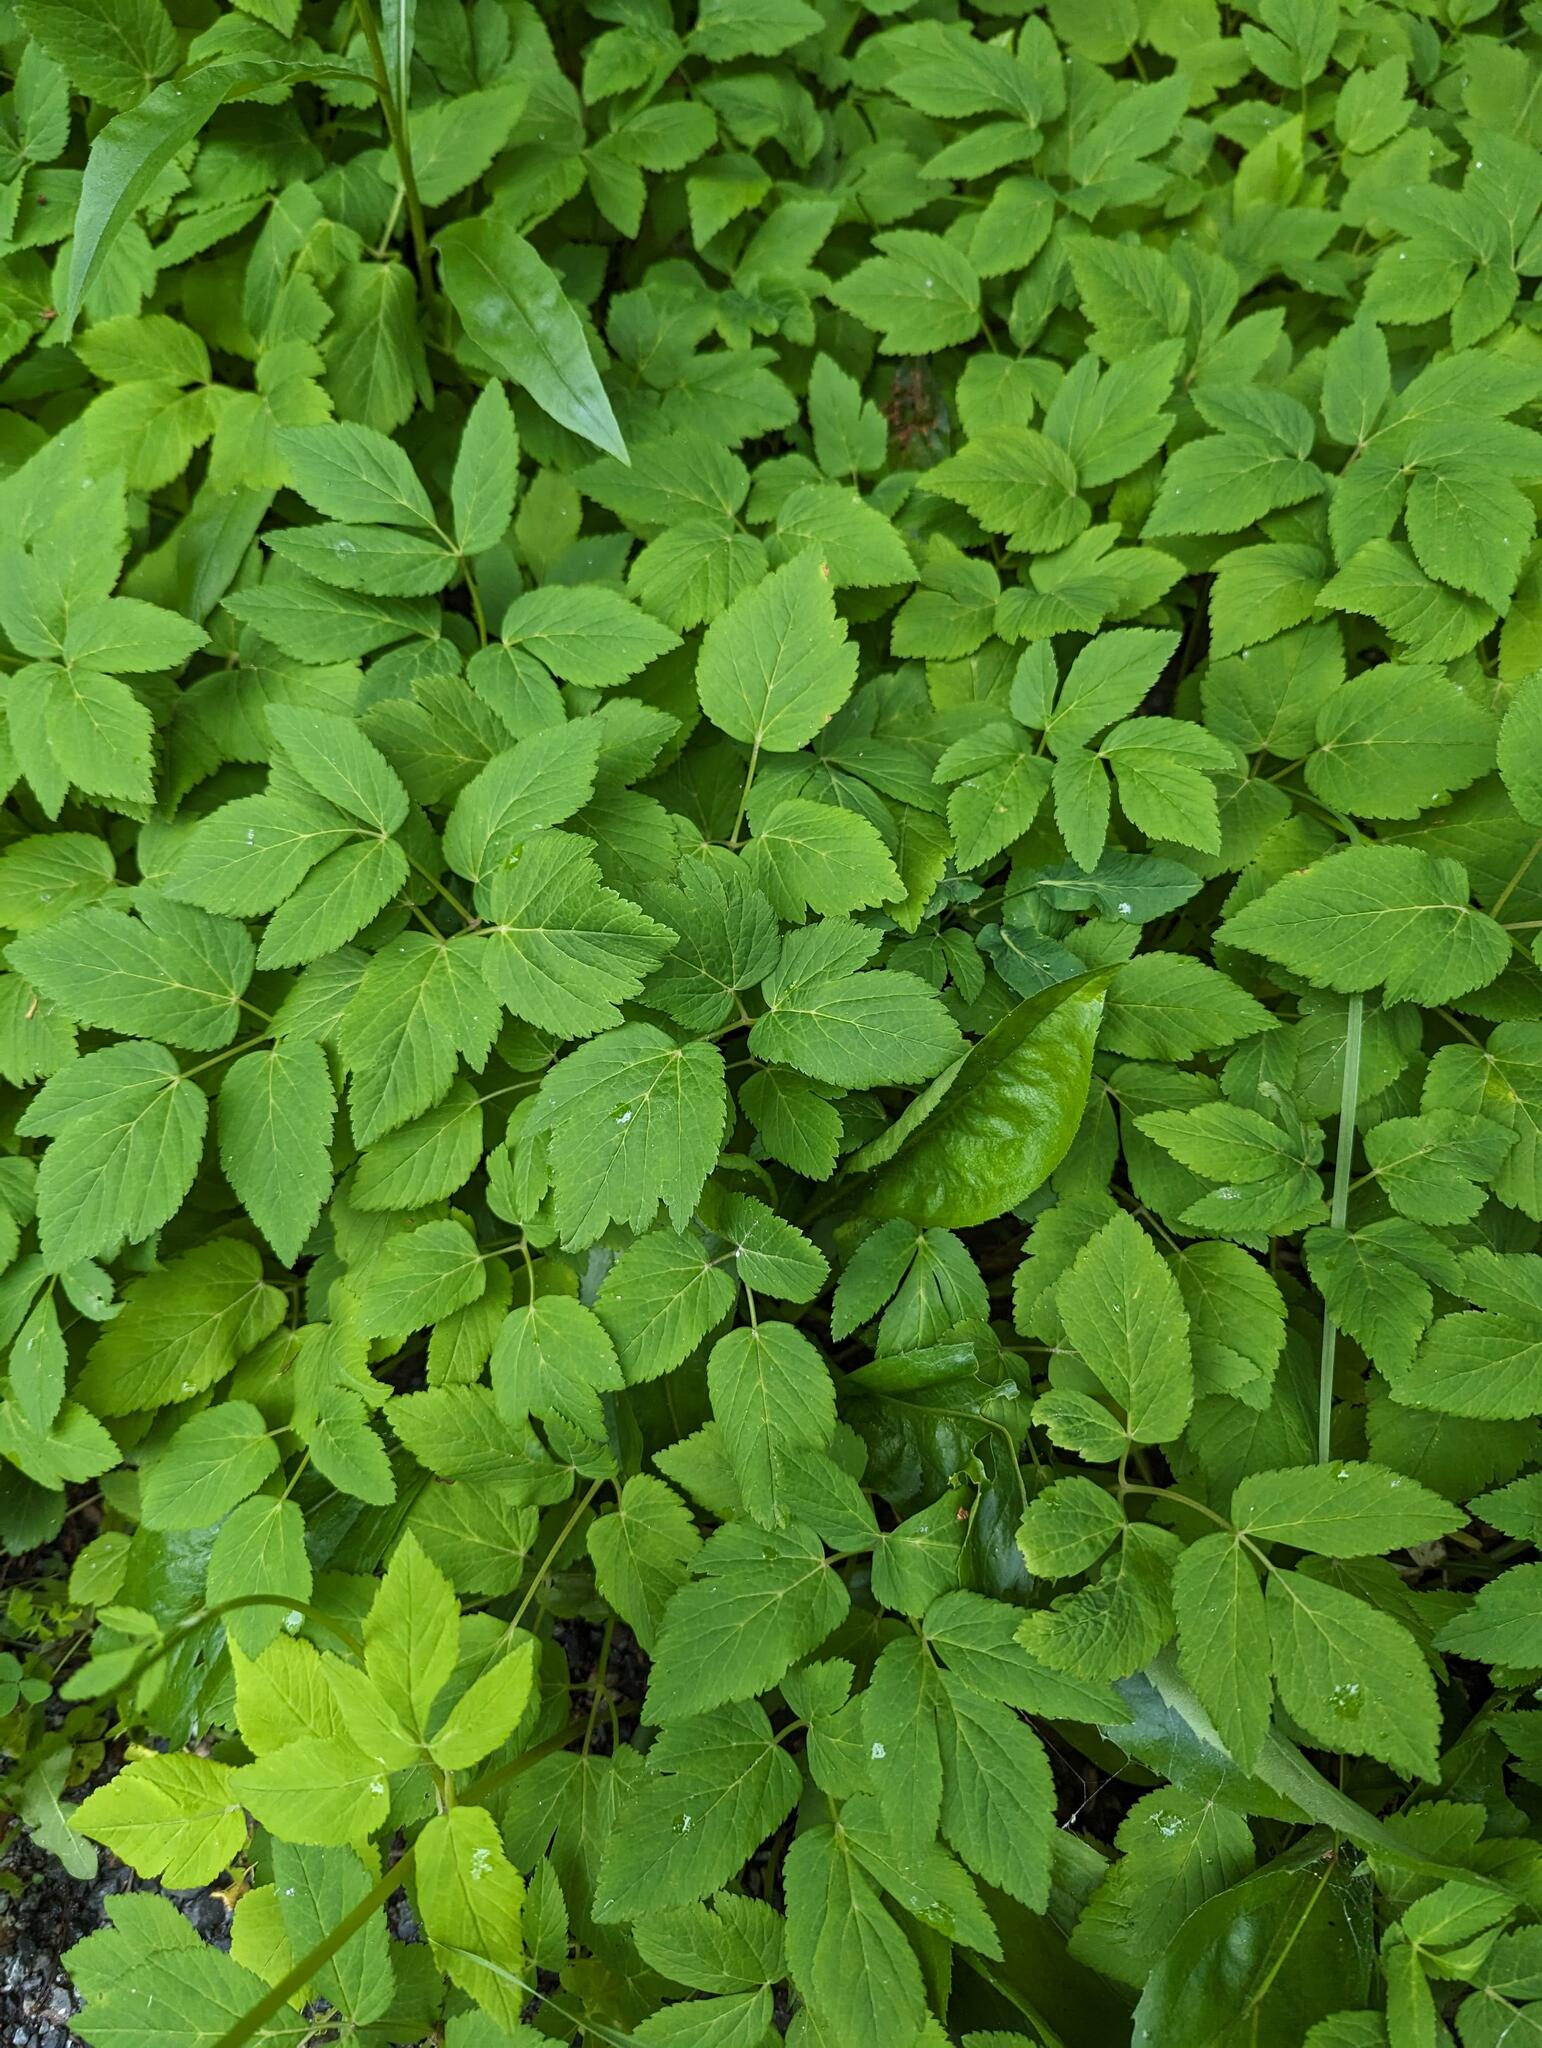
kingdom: Plantae
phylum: Tracheophyta
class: Magnoliopsida
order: Apiales
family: Apiaceae
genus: Aegopodium
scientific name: Aegopodium podagraria
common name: Ground-elder
